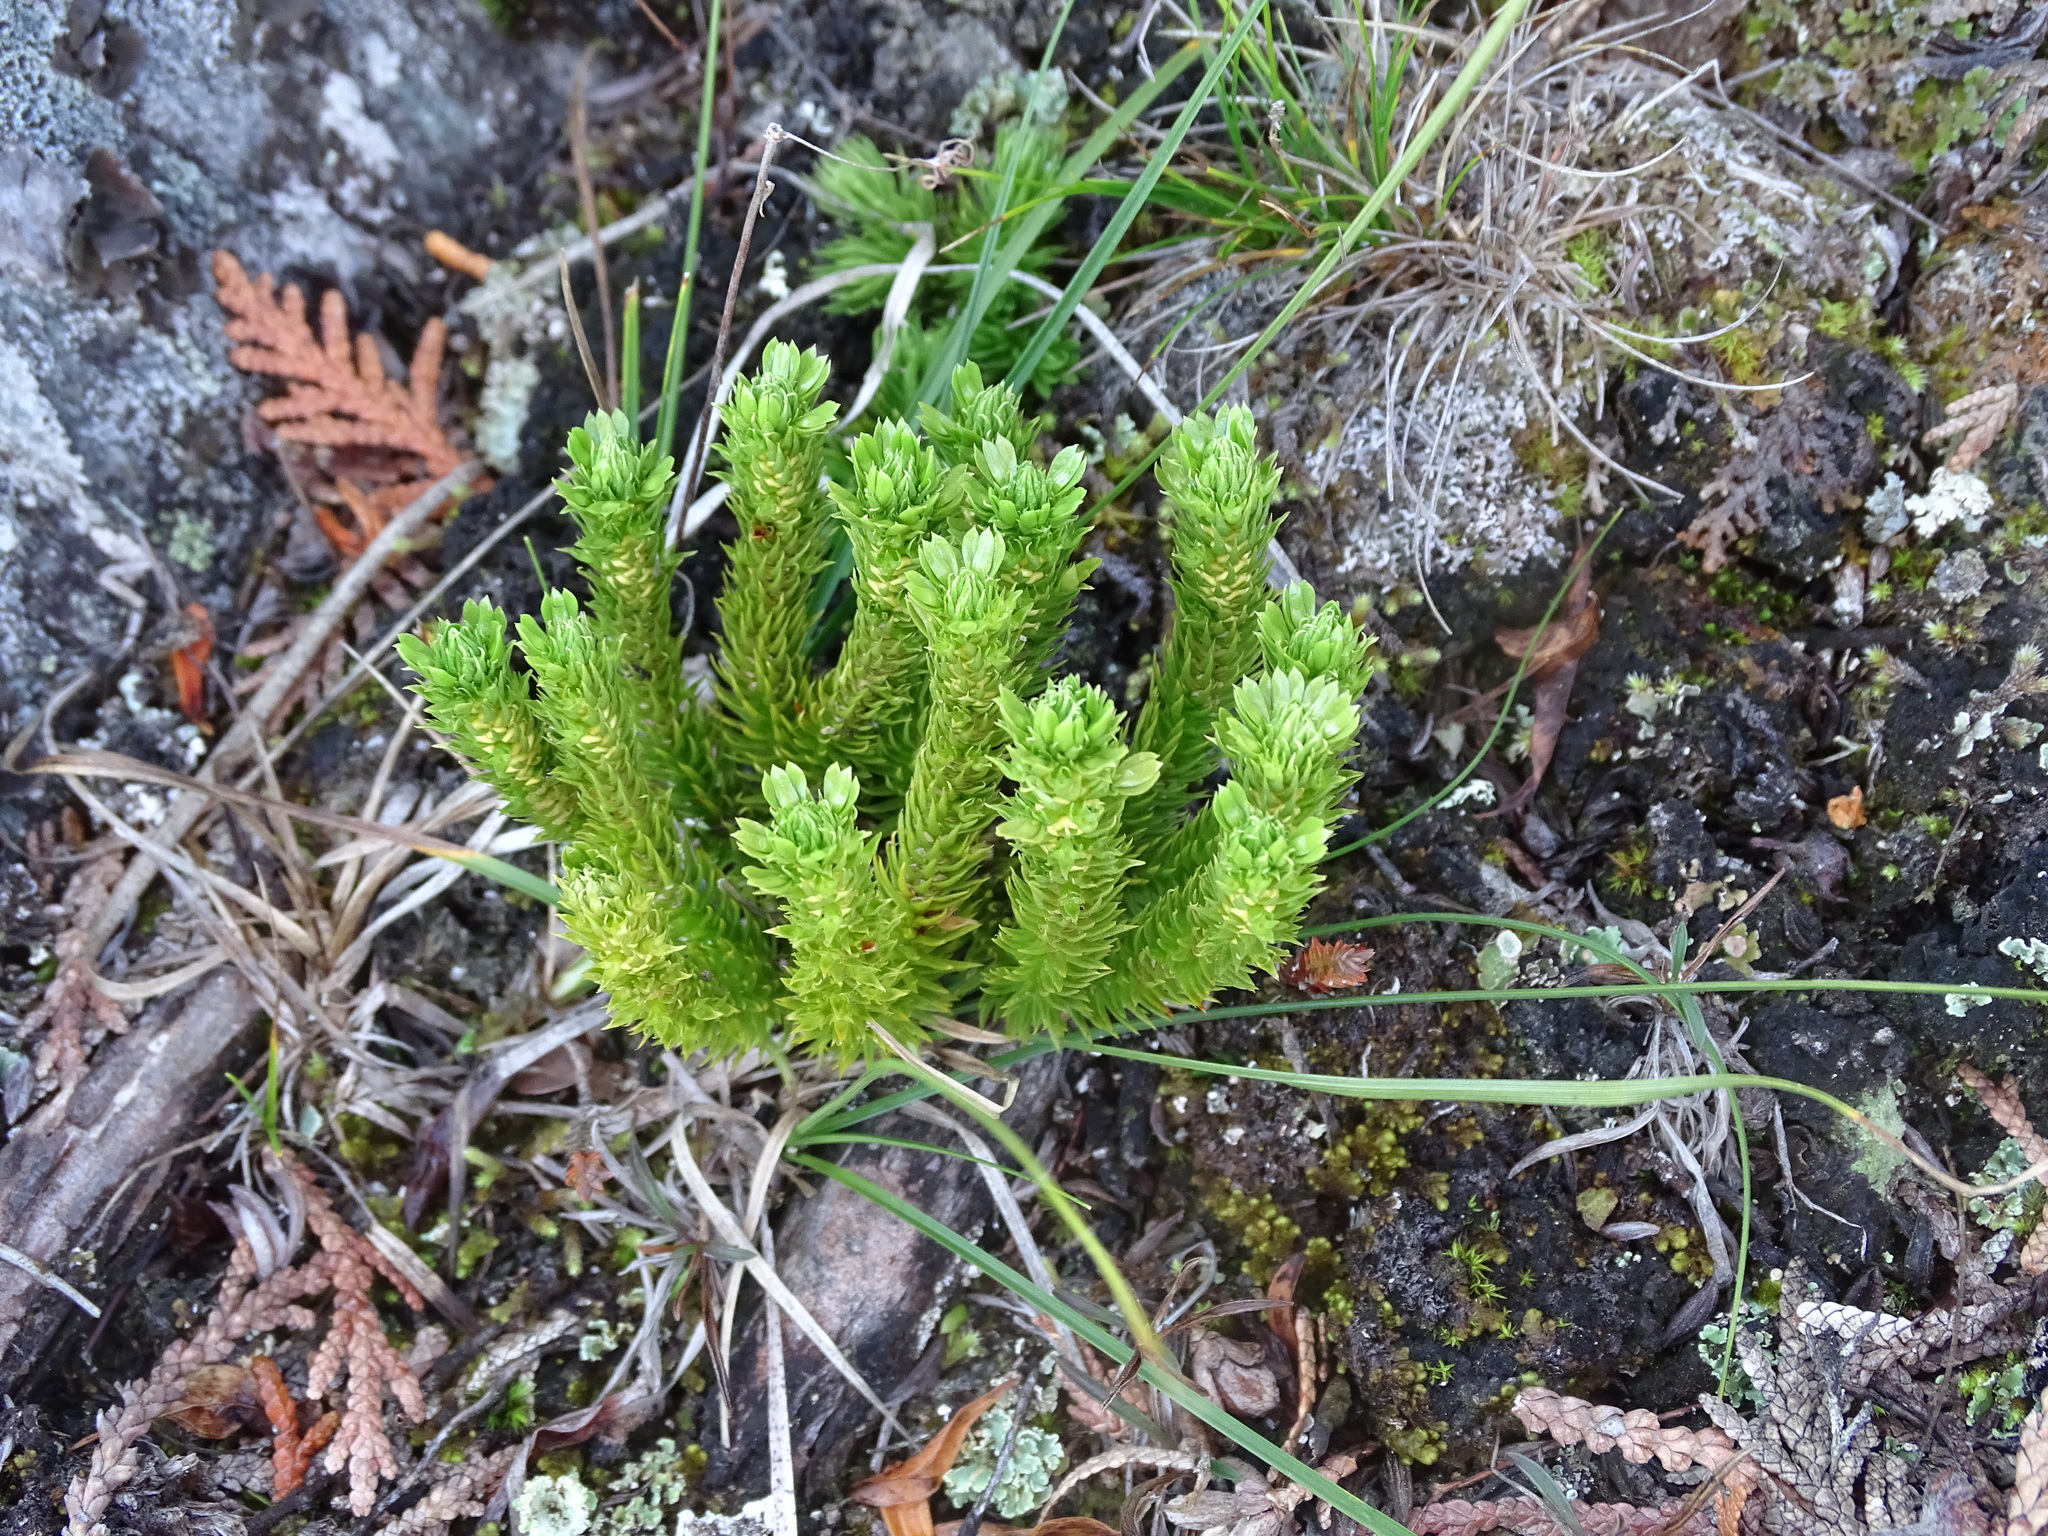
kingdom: Plantae
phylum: Tracheophyta
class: Lycopodiopsida
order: Lycopodiales
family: Lycopodiaceae
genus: Huperzia
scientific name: Huperzia selago
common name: Northern firmoss
